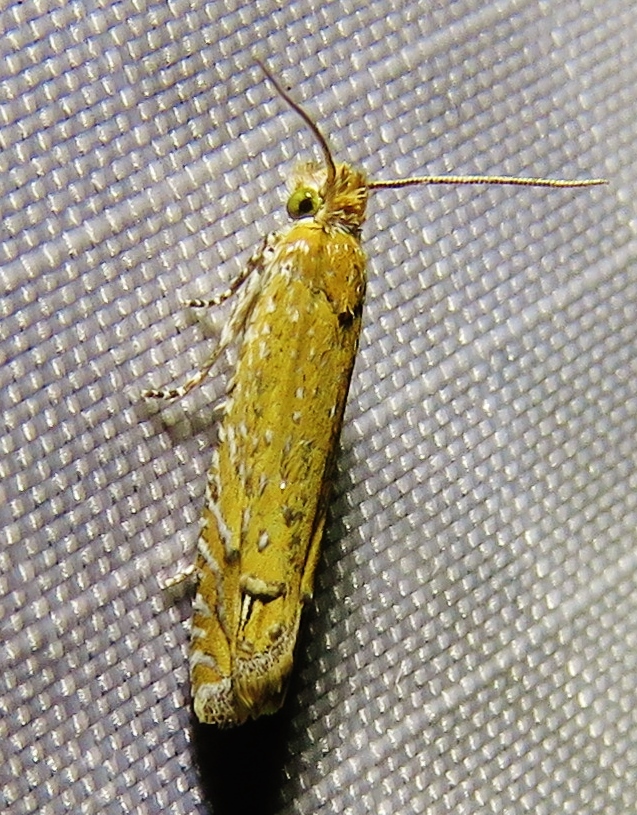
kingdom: Animalia
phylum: Arthropoda
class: Insecta
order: Lepidoptera
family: Tortricidae
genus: Pelochrista
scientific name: Pelochrista albiguttana
